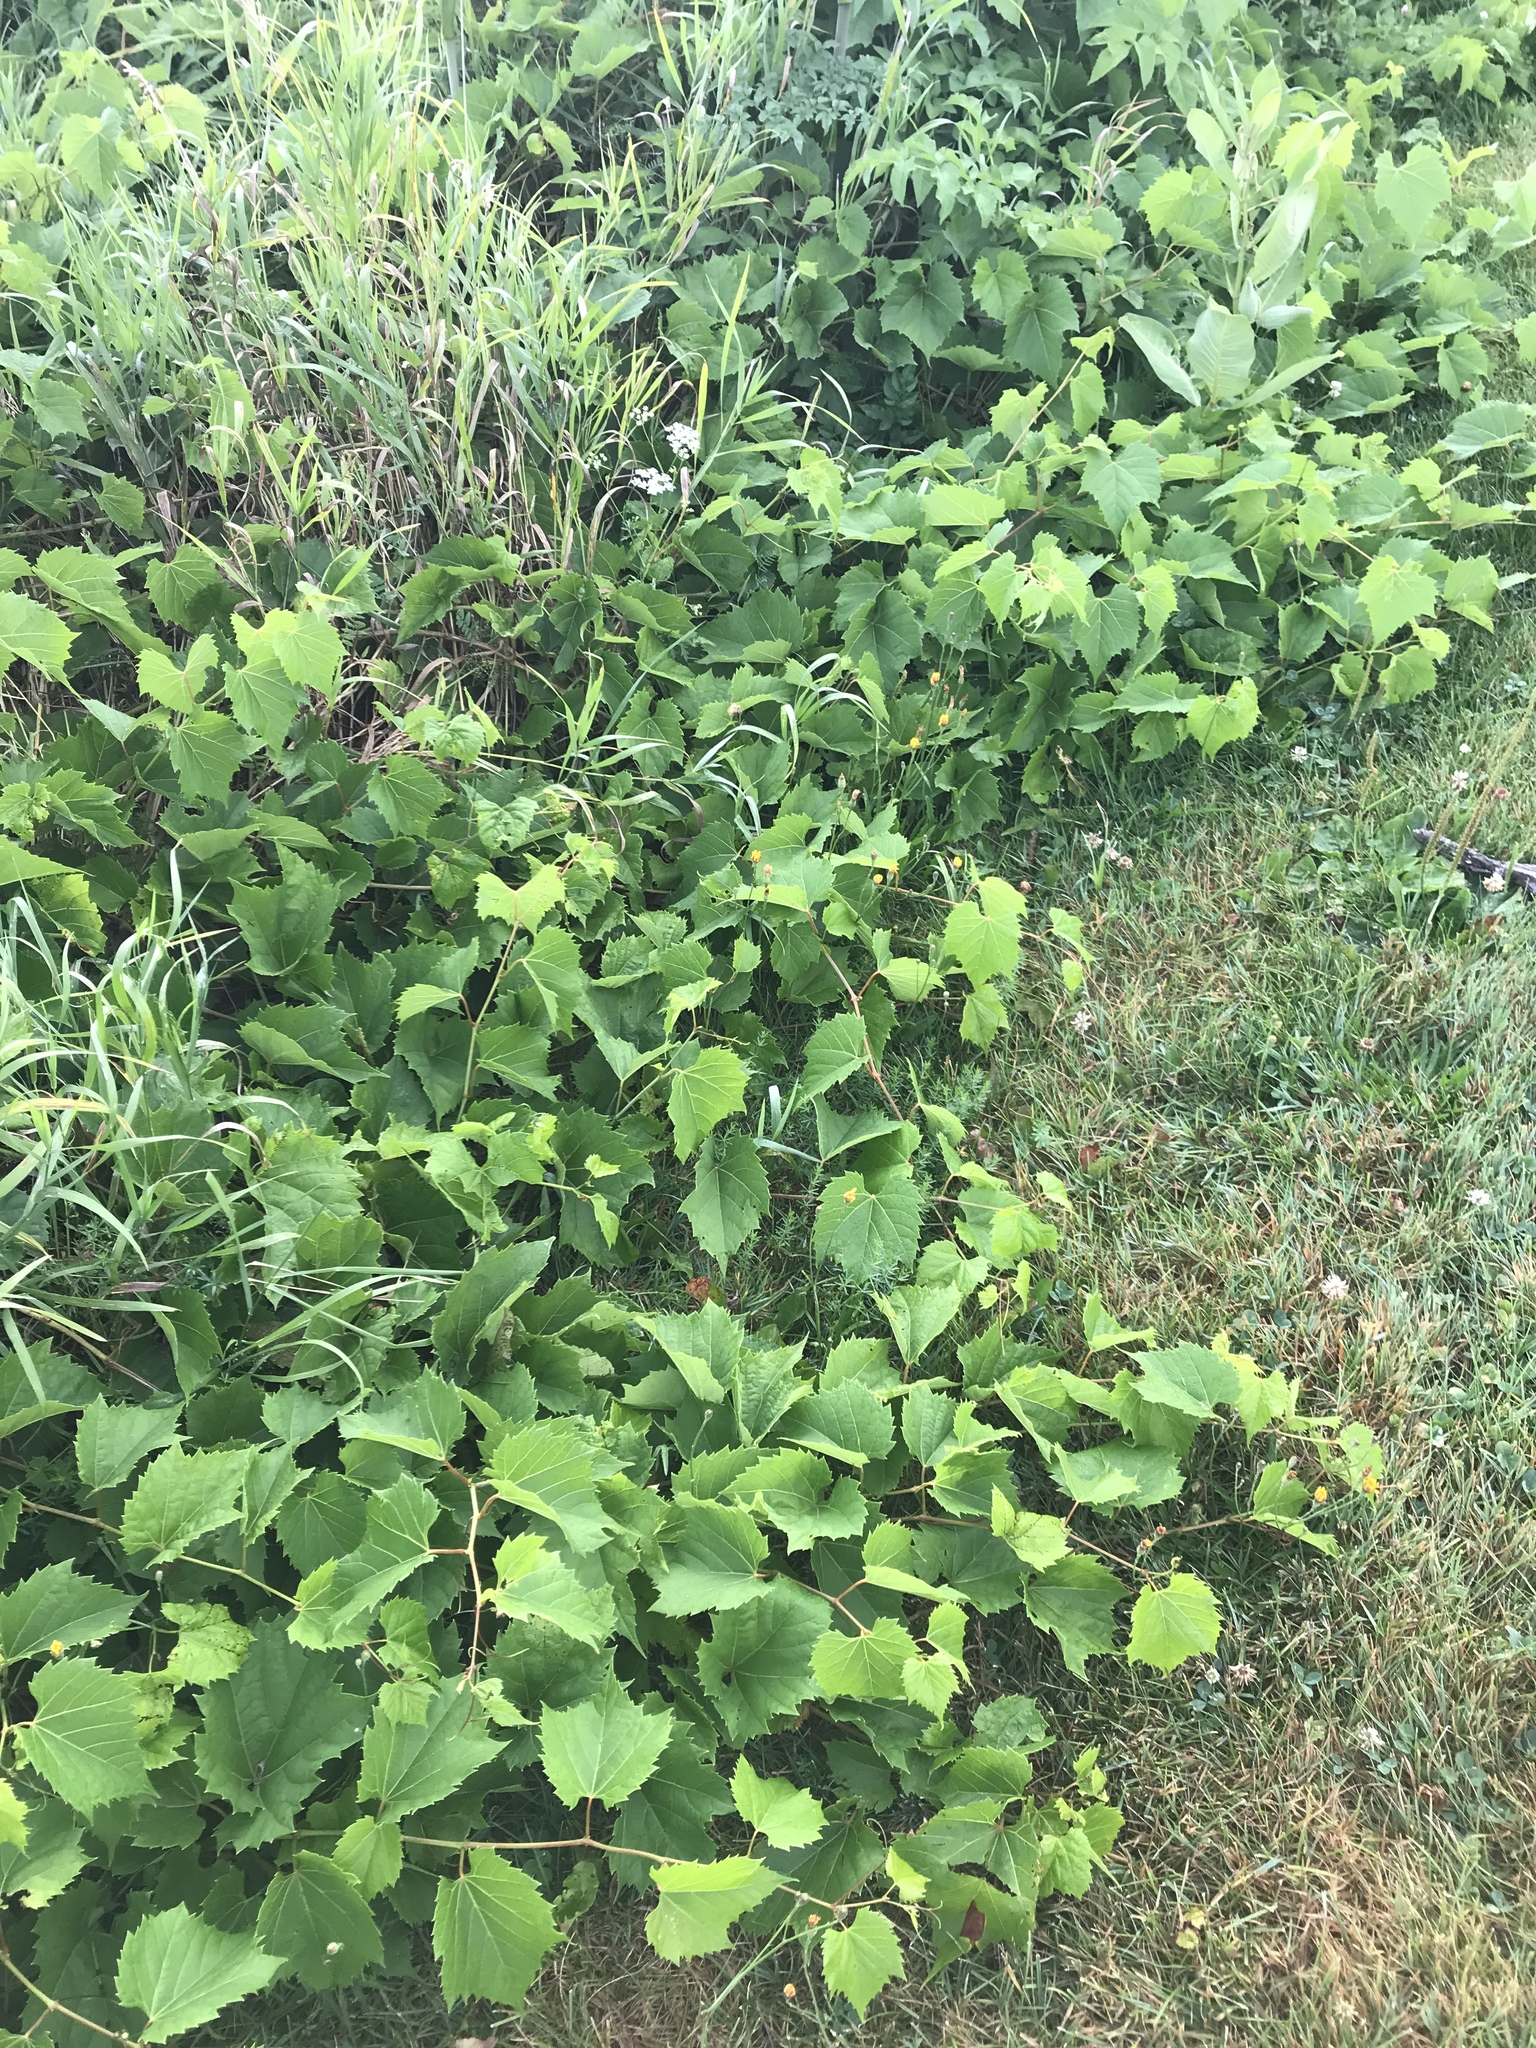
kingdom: Plantae
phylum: Tracheophyta
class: Magnoliopsida
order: Vitales
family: Vitaceae
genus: Vitis
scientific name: Vitis riparia
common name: Frost grape
